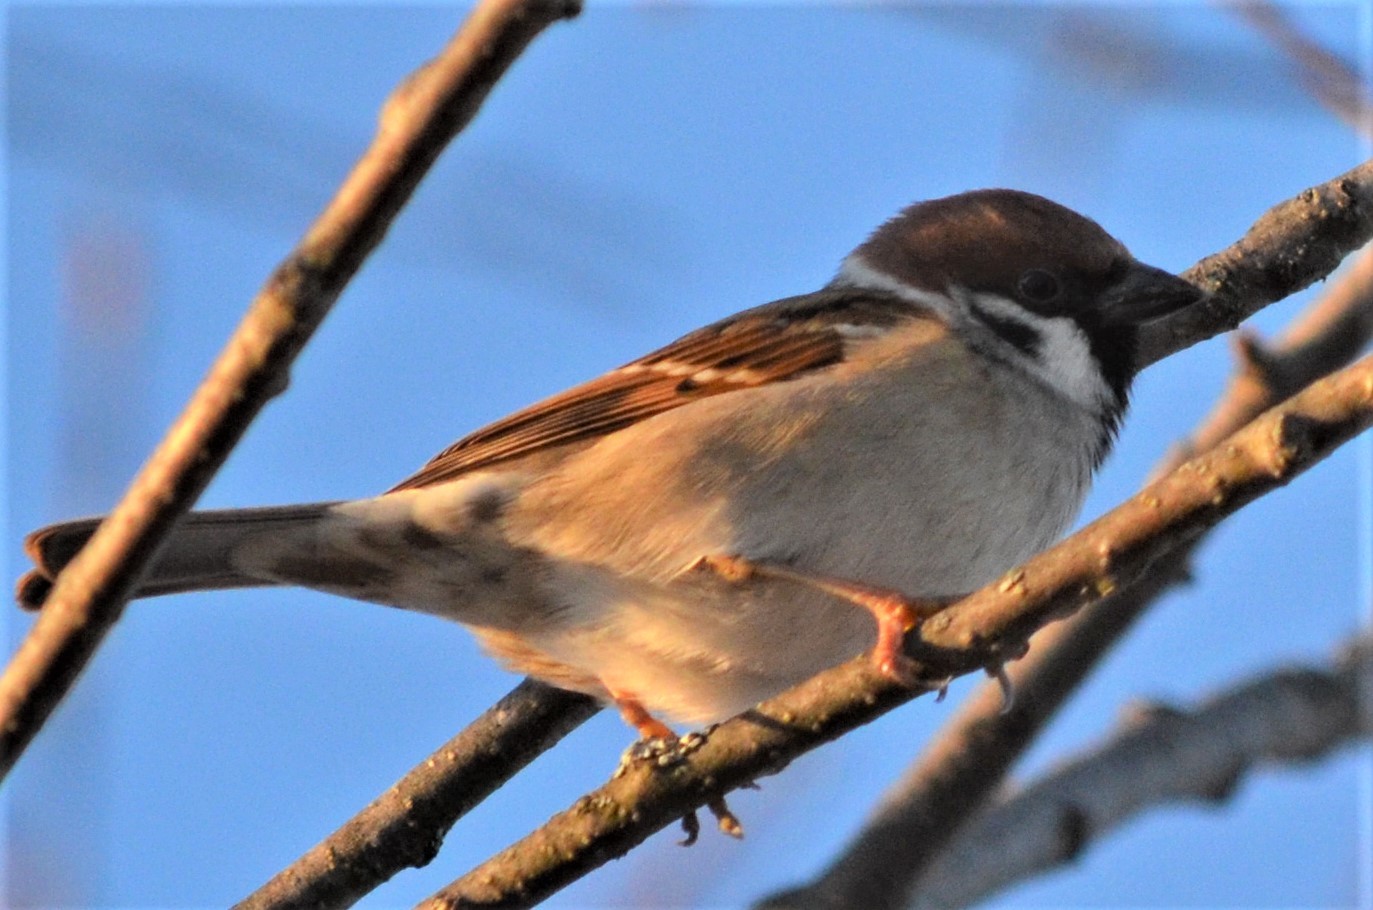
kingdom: Animalia
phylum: Chordata
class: Aves
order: Passeriformes
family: Passeridae
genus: Passer
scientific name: Passer montanus
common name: Eurasian tree sparrow
